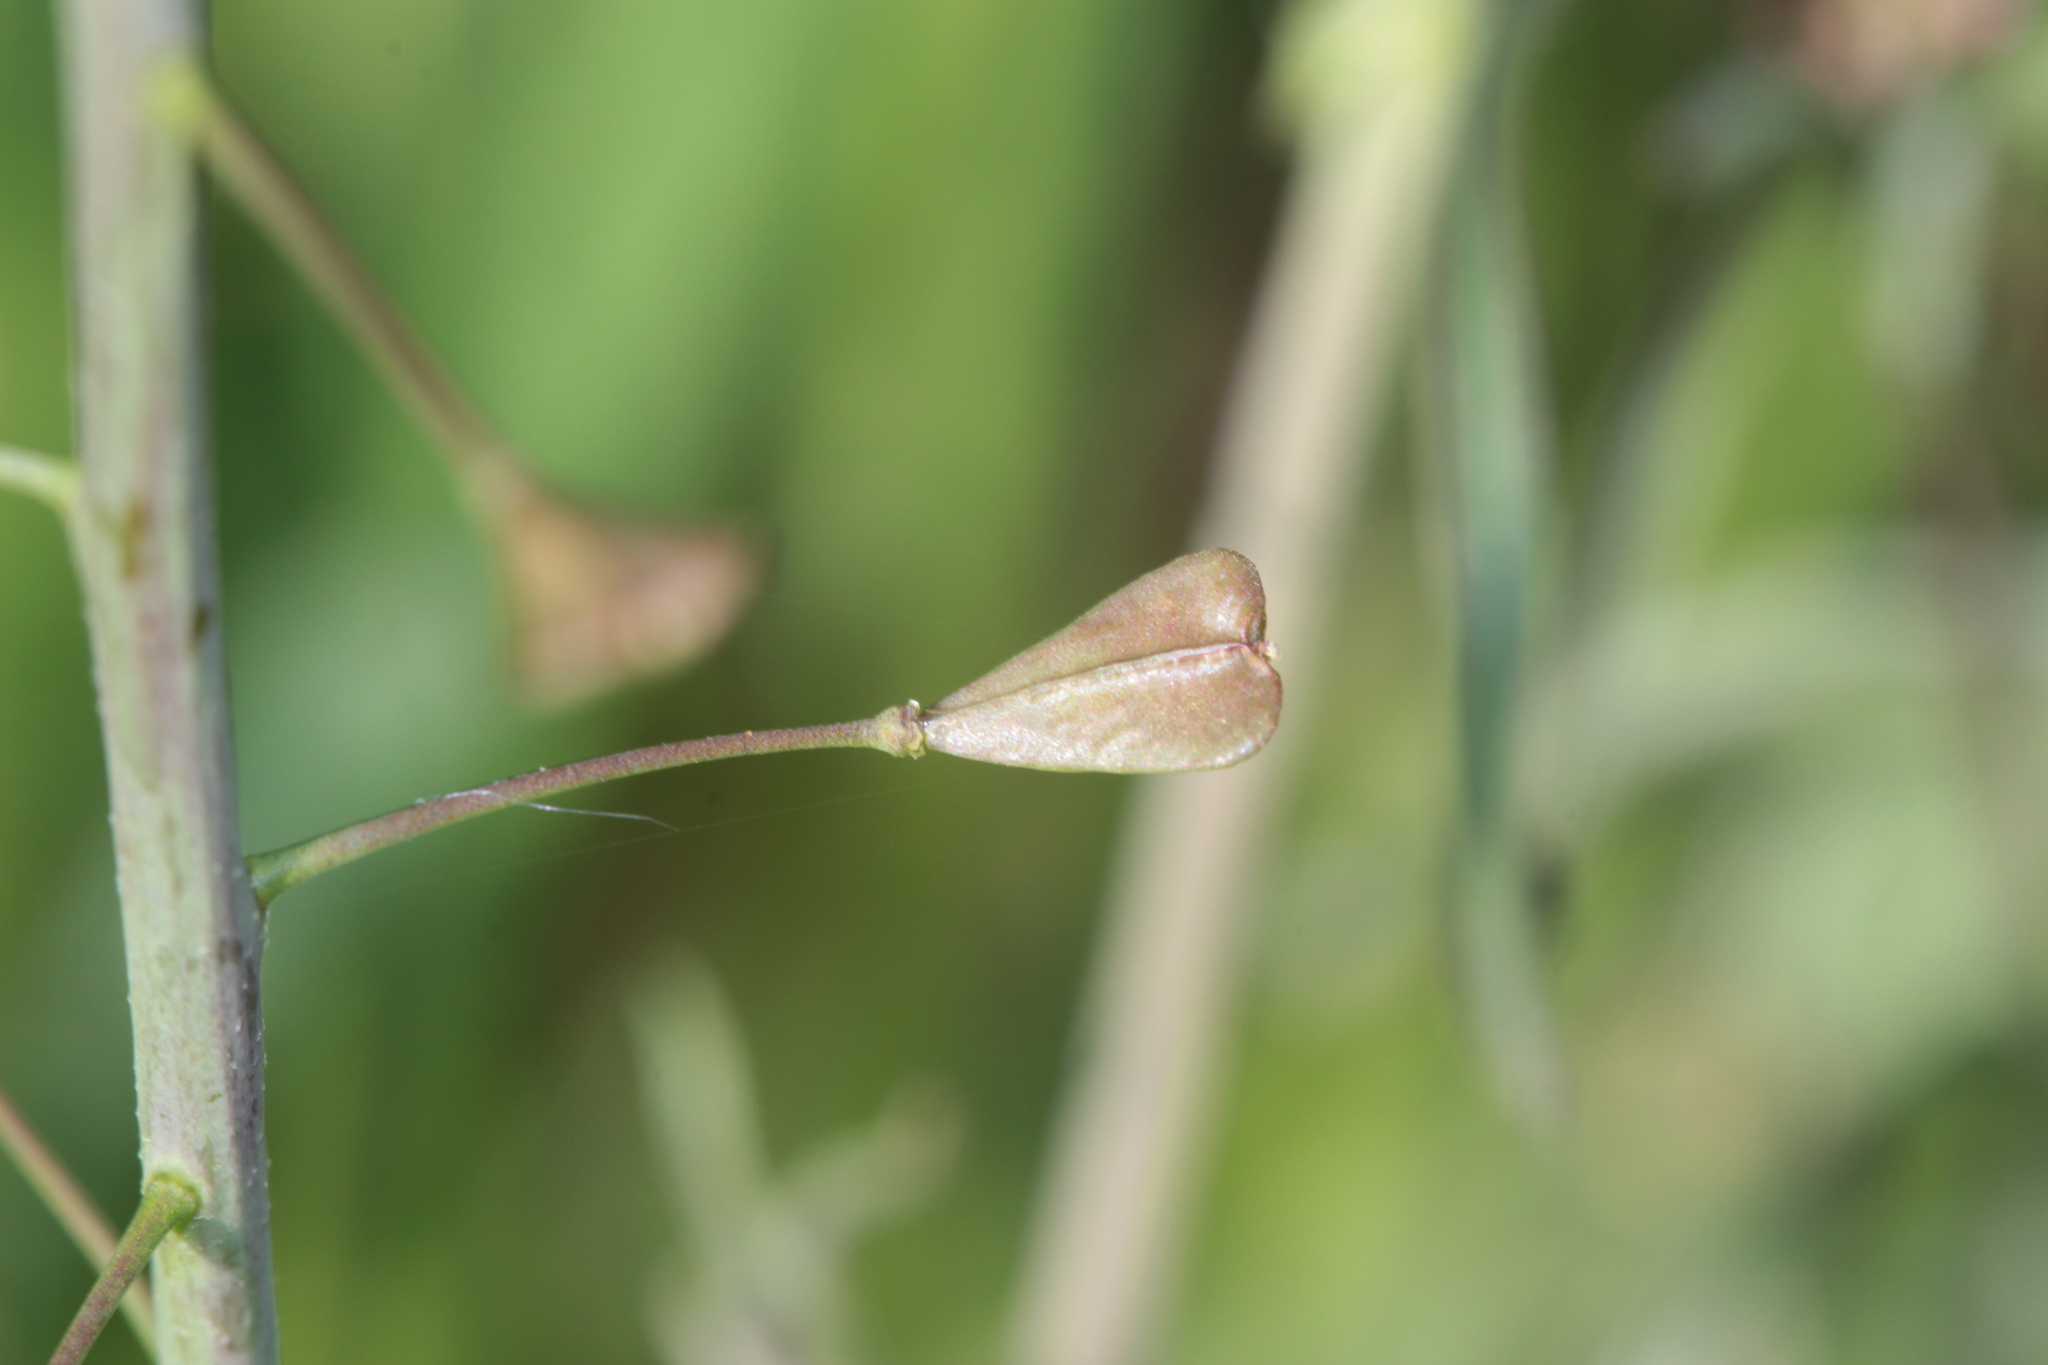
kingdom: Plantae
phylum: Tracheophyta
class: Magnoliopsida
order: Brassicales
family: Brassicaceae
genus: Capsella
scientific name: Capsella bursa-pastoris
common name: Shepherd's purse
